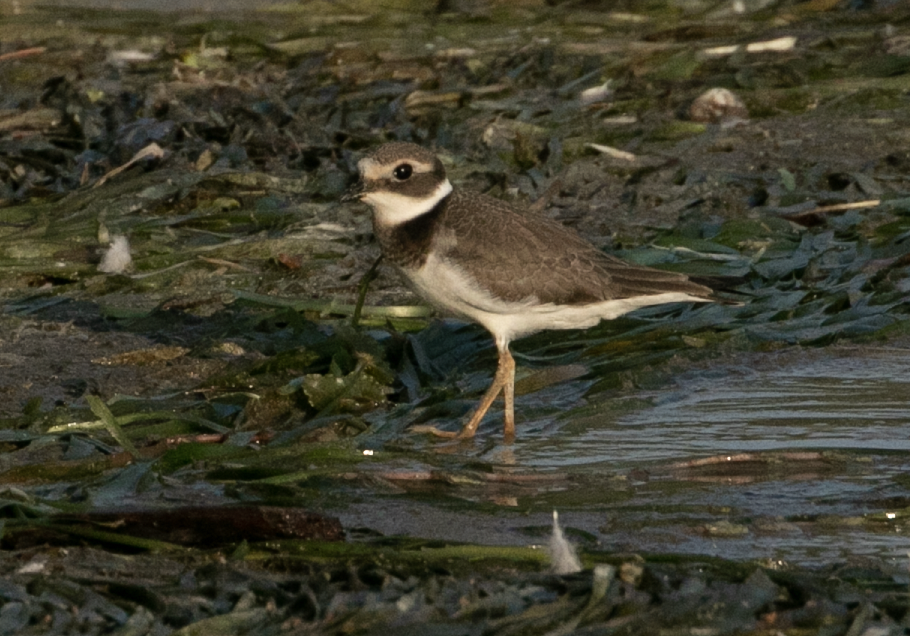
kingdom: Animalia
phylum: Chordata
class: Aves
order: Charadriiformes
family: Charadriidae
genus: Charadrius
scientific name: Charadrius hiaticula
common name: Common ringed plover
